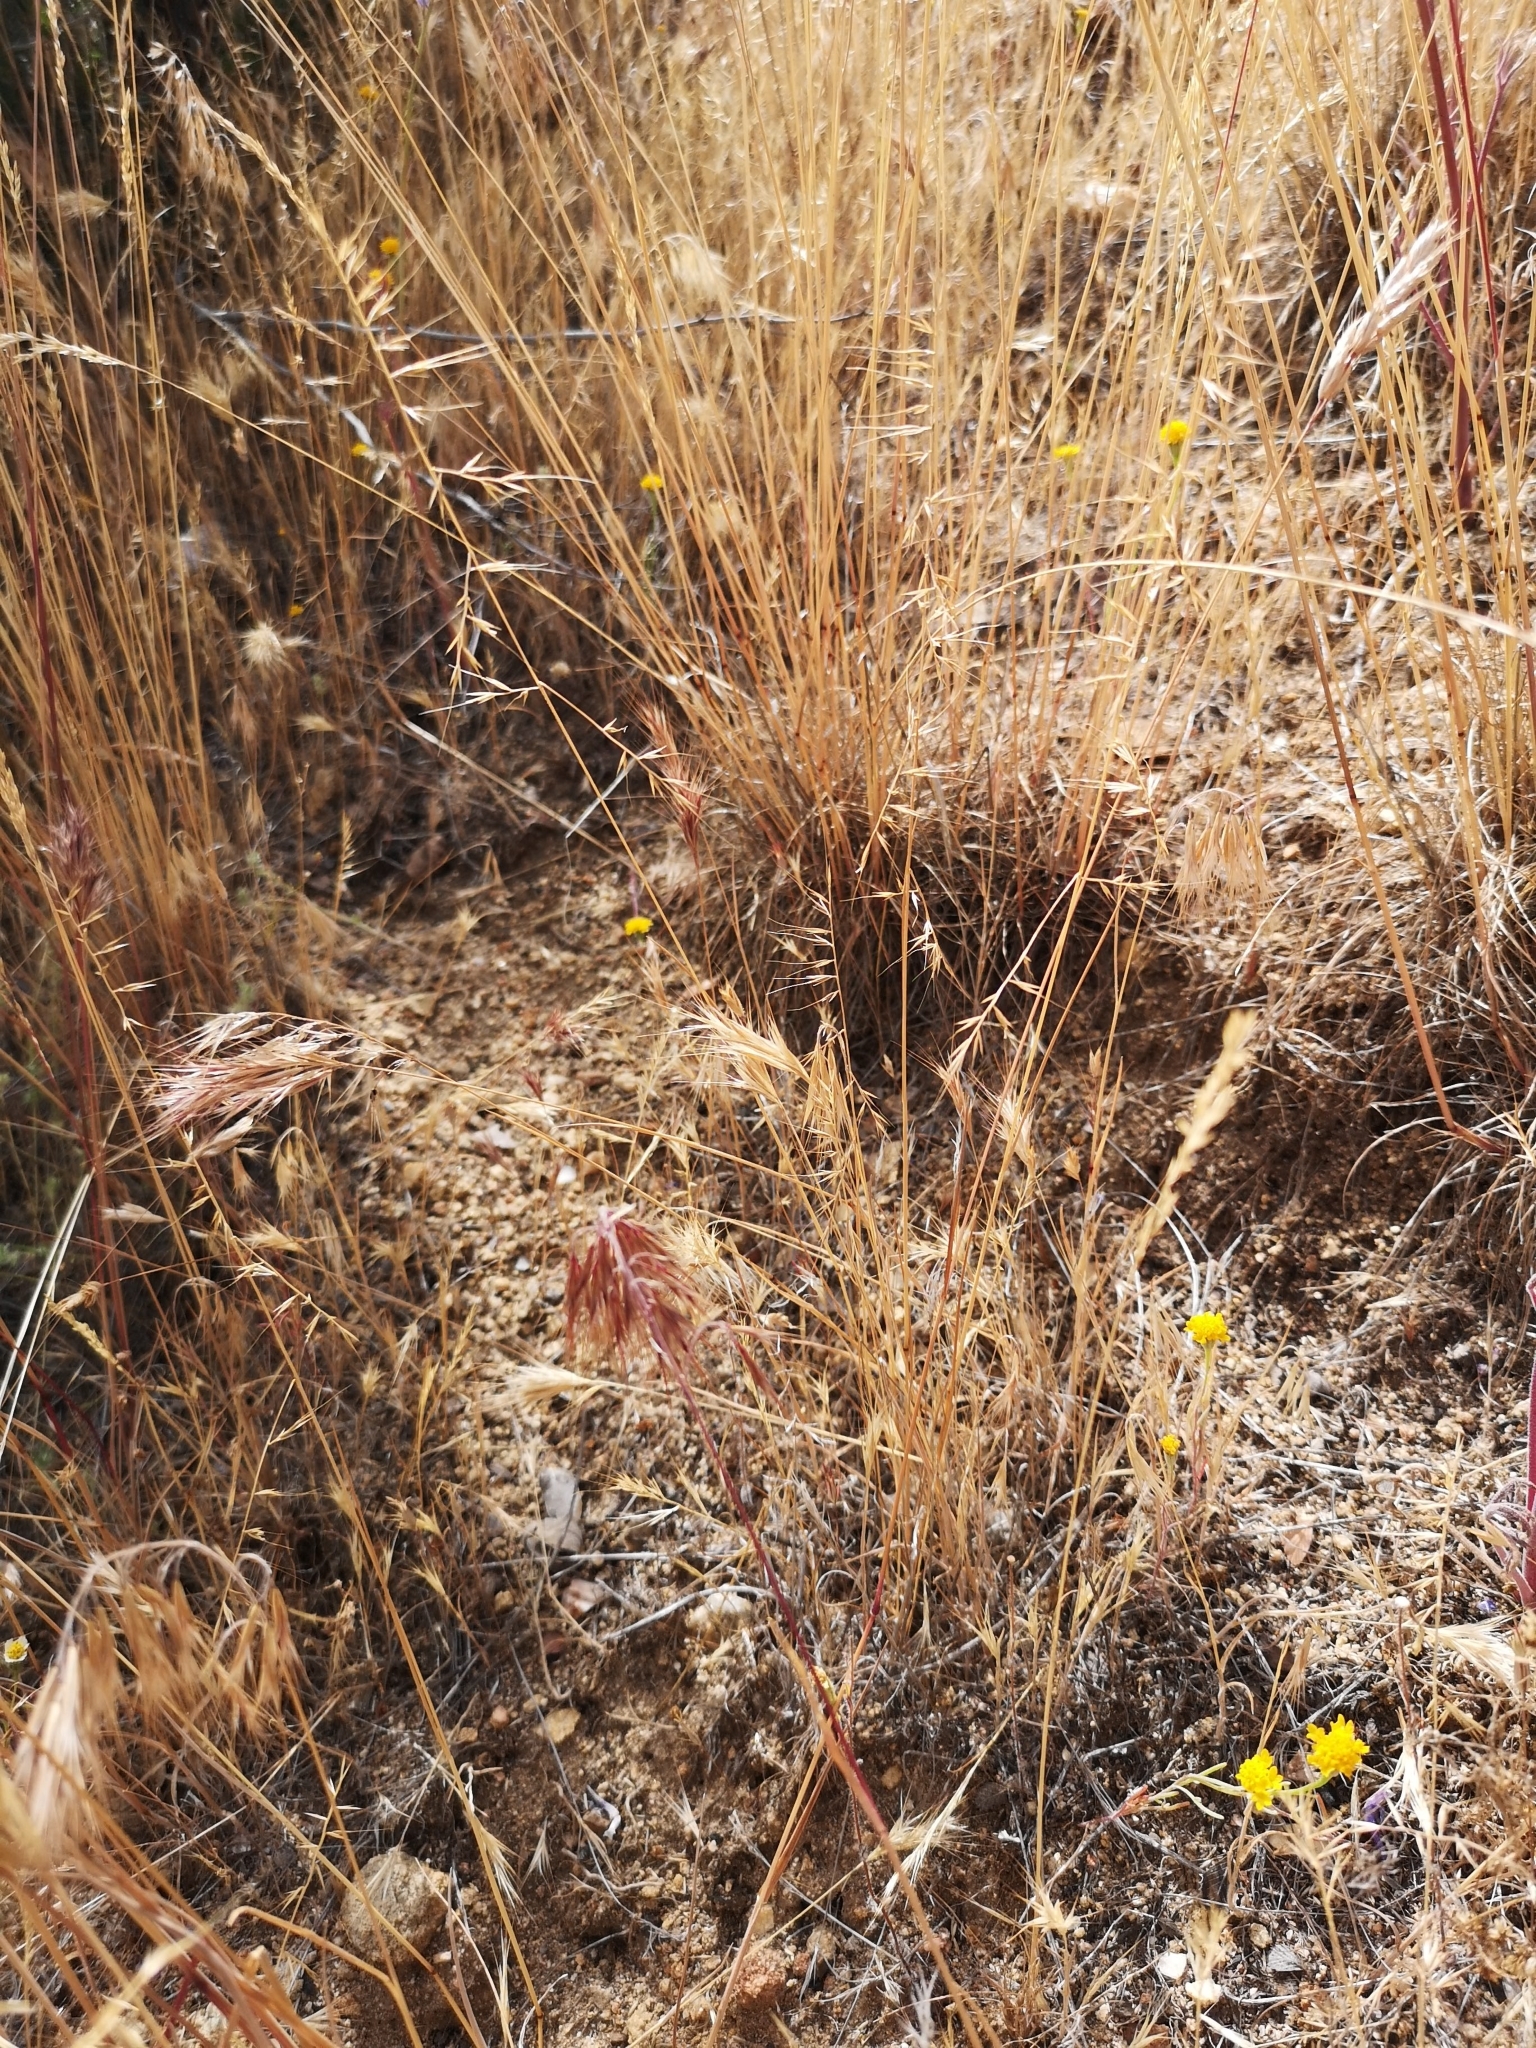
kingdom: Plantae
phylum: Tracheophyta
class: Liliopsida
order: Poales
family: Poaceae
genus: Festuca
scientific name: Festuca microstachys
